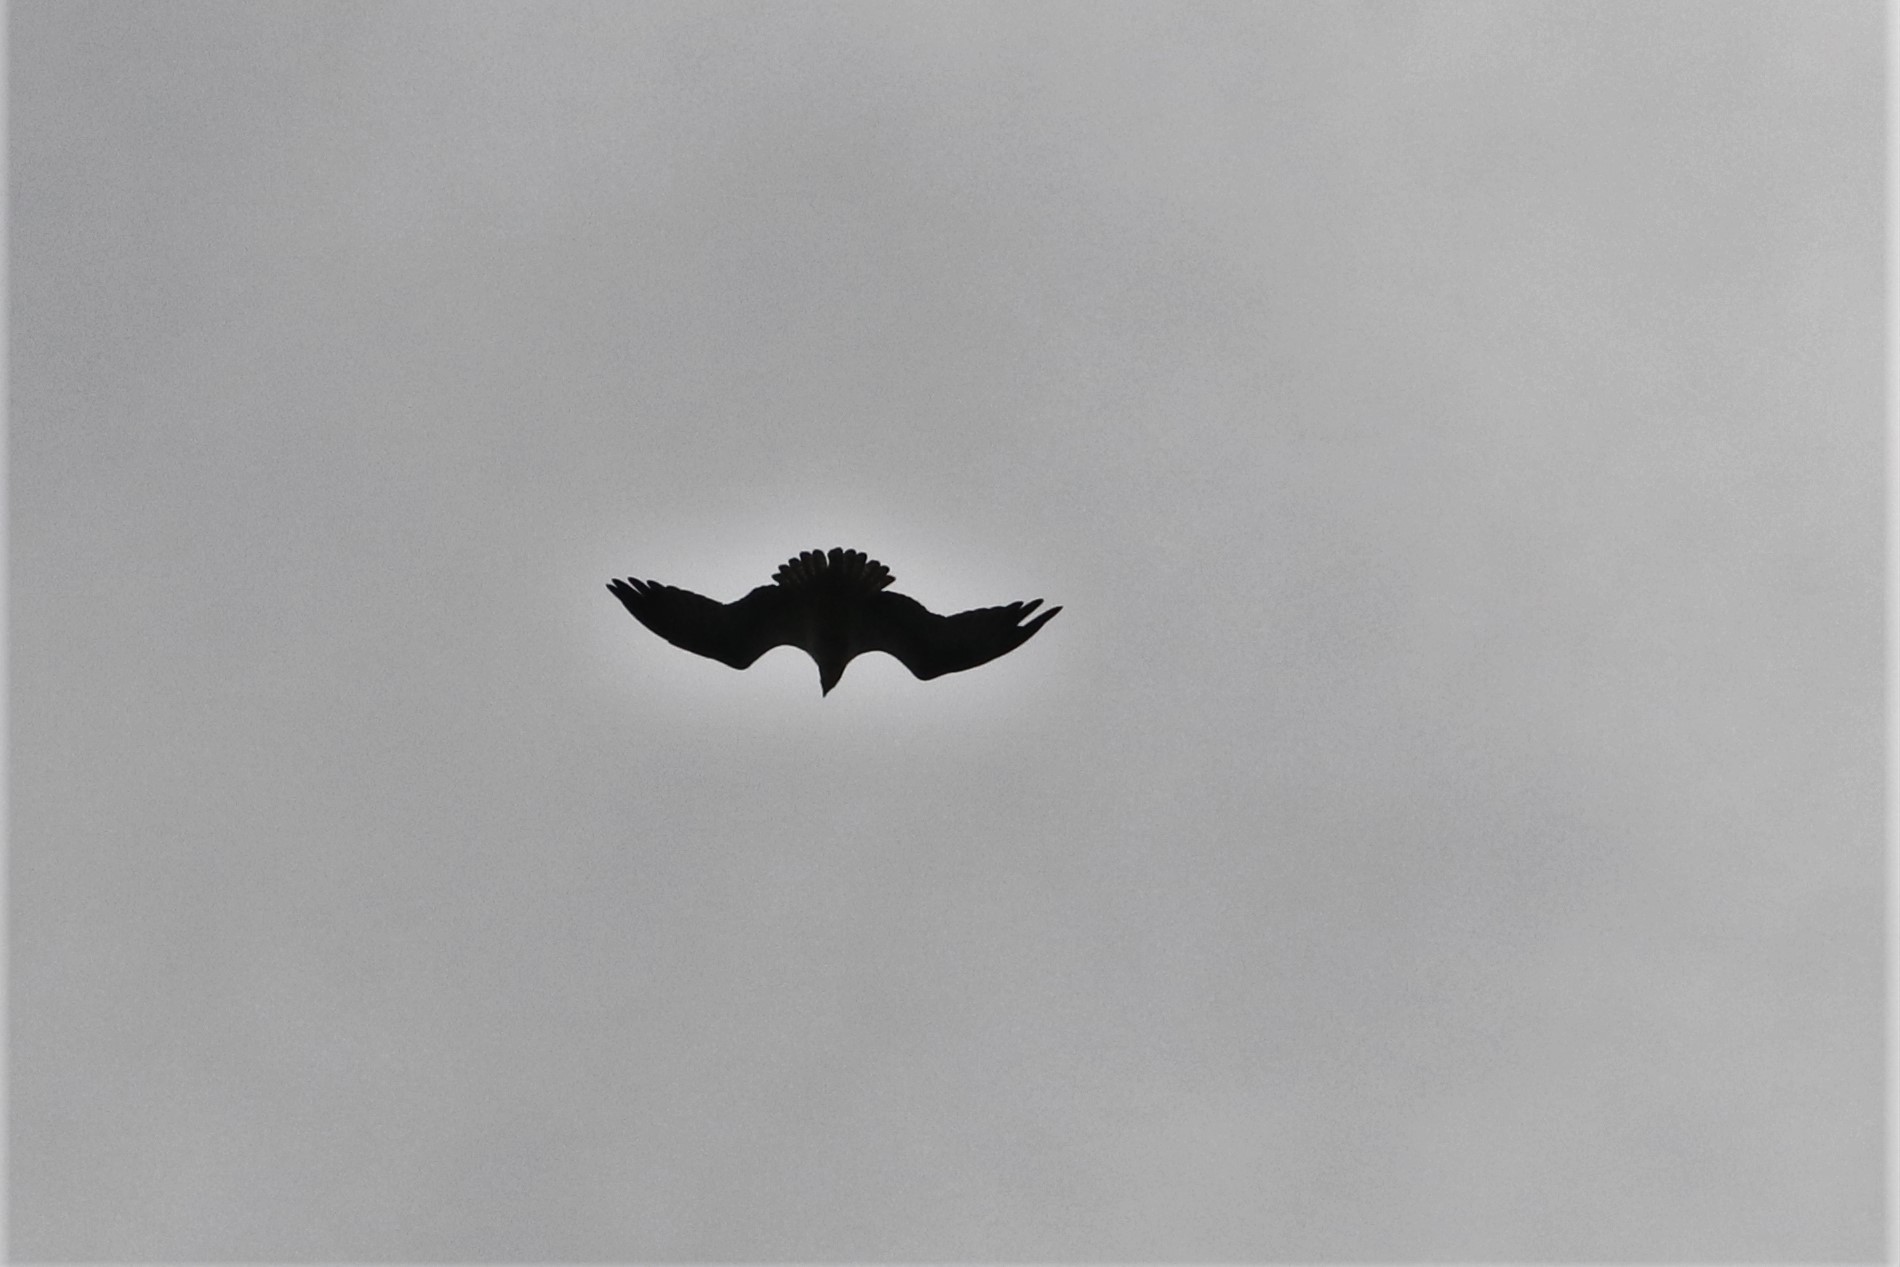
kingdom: Animalia
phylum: Chordata
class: Aves
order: Accipitriformes
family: Pandionidae
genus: Pandion
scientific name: Pandion haliaetus
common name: Osprey
